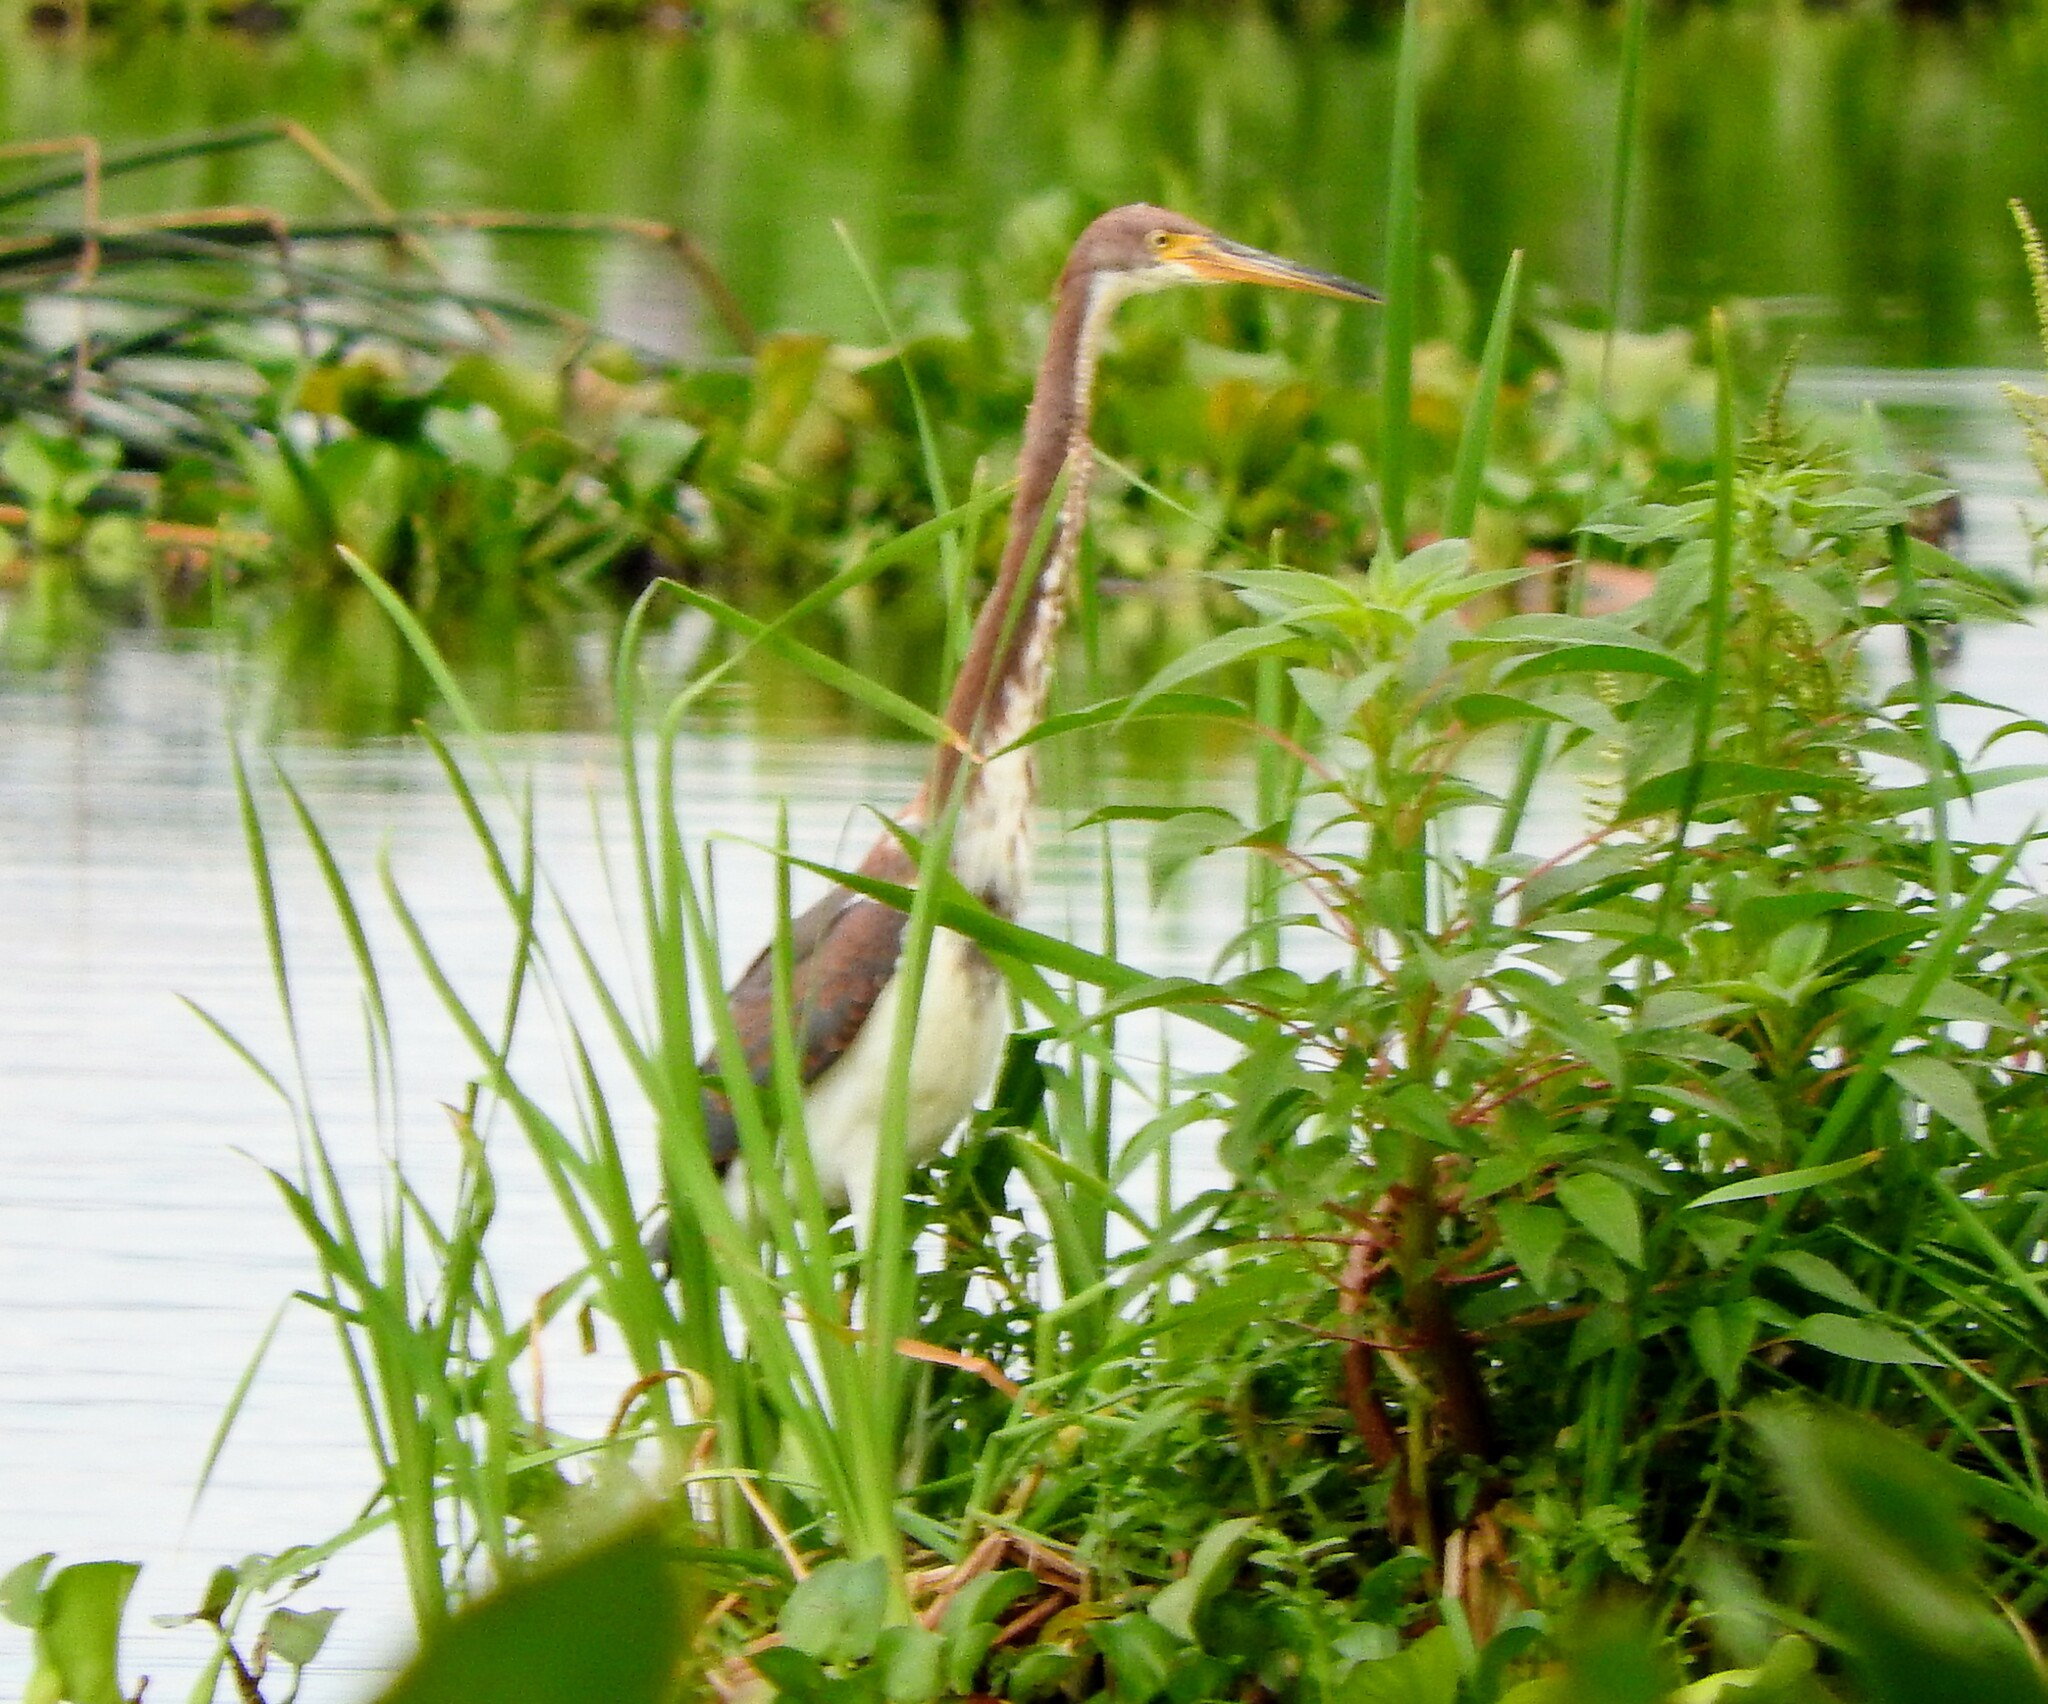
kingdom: Animalia
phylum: Chordata
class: Aves
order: Pelecaniformes
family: Ardeidae
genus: Egretta
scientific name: Egretta tricolor
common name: Tricolored heron
